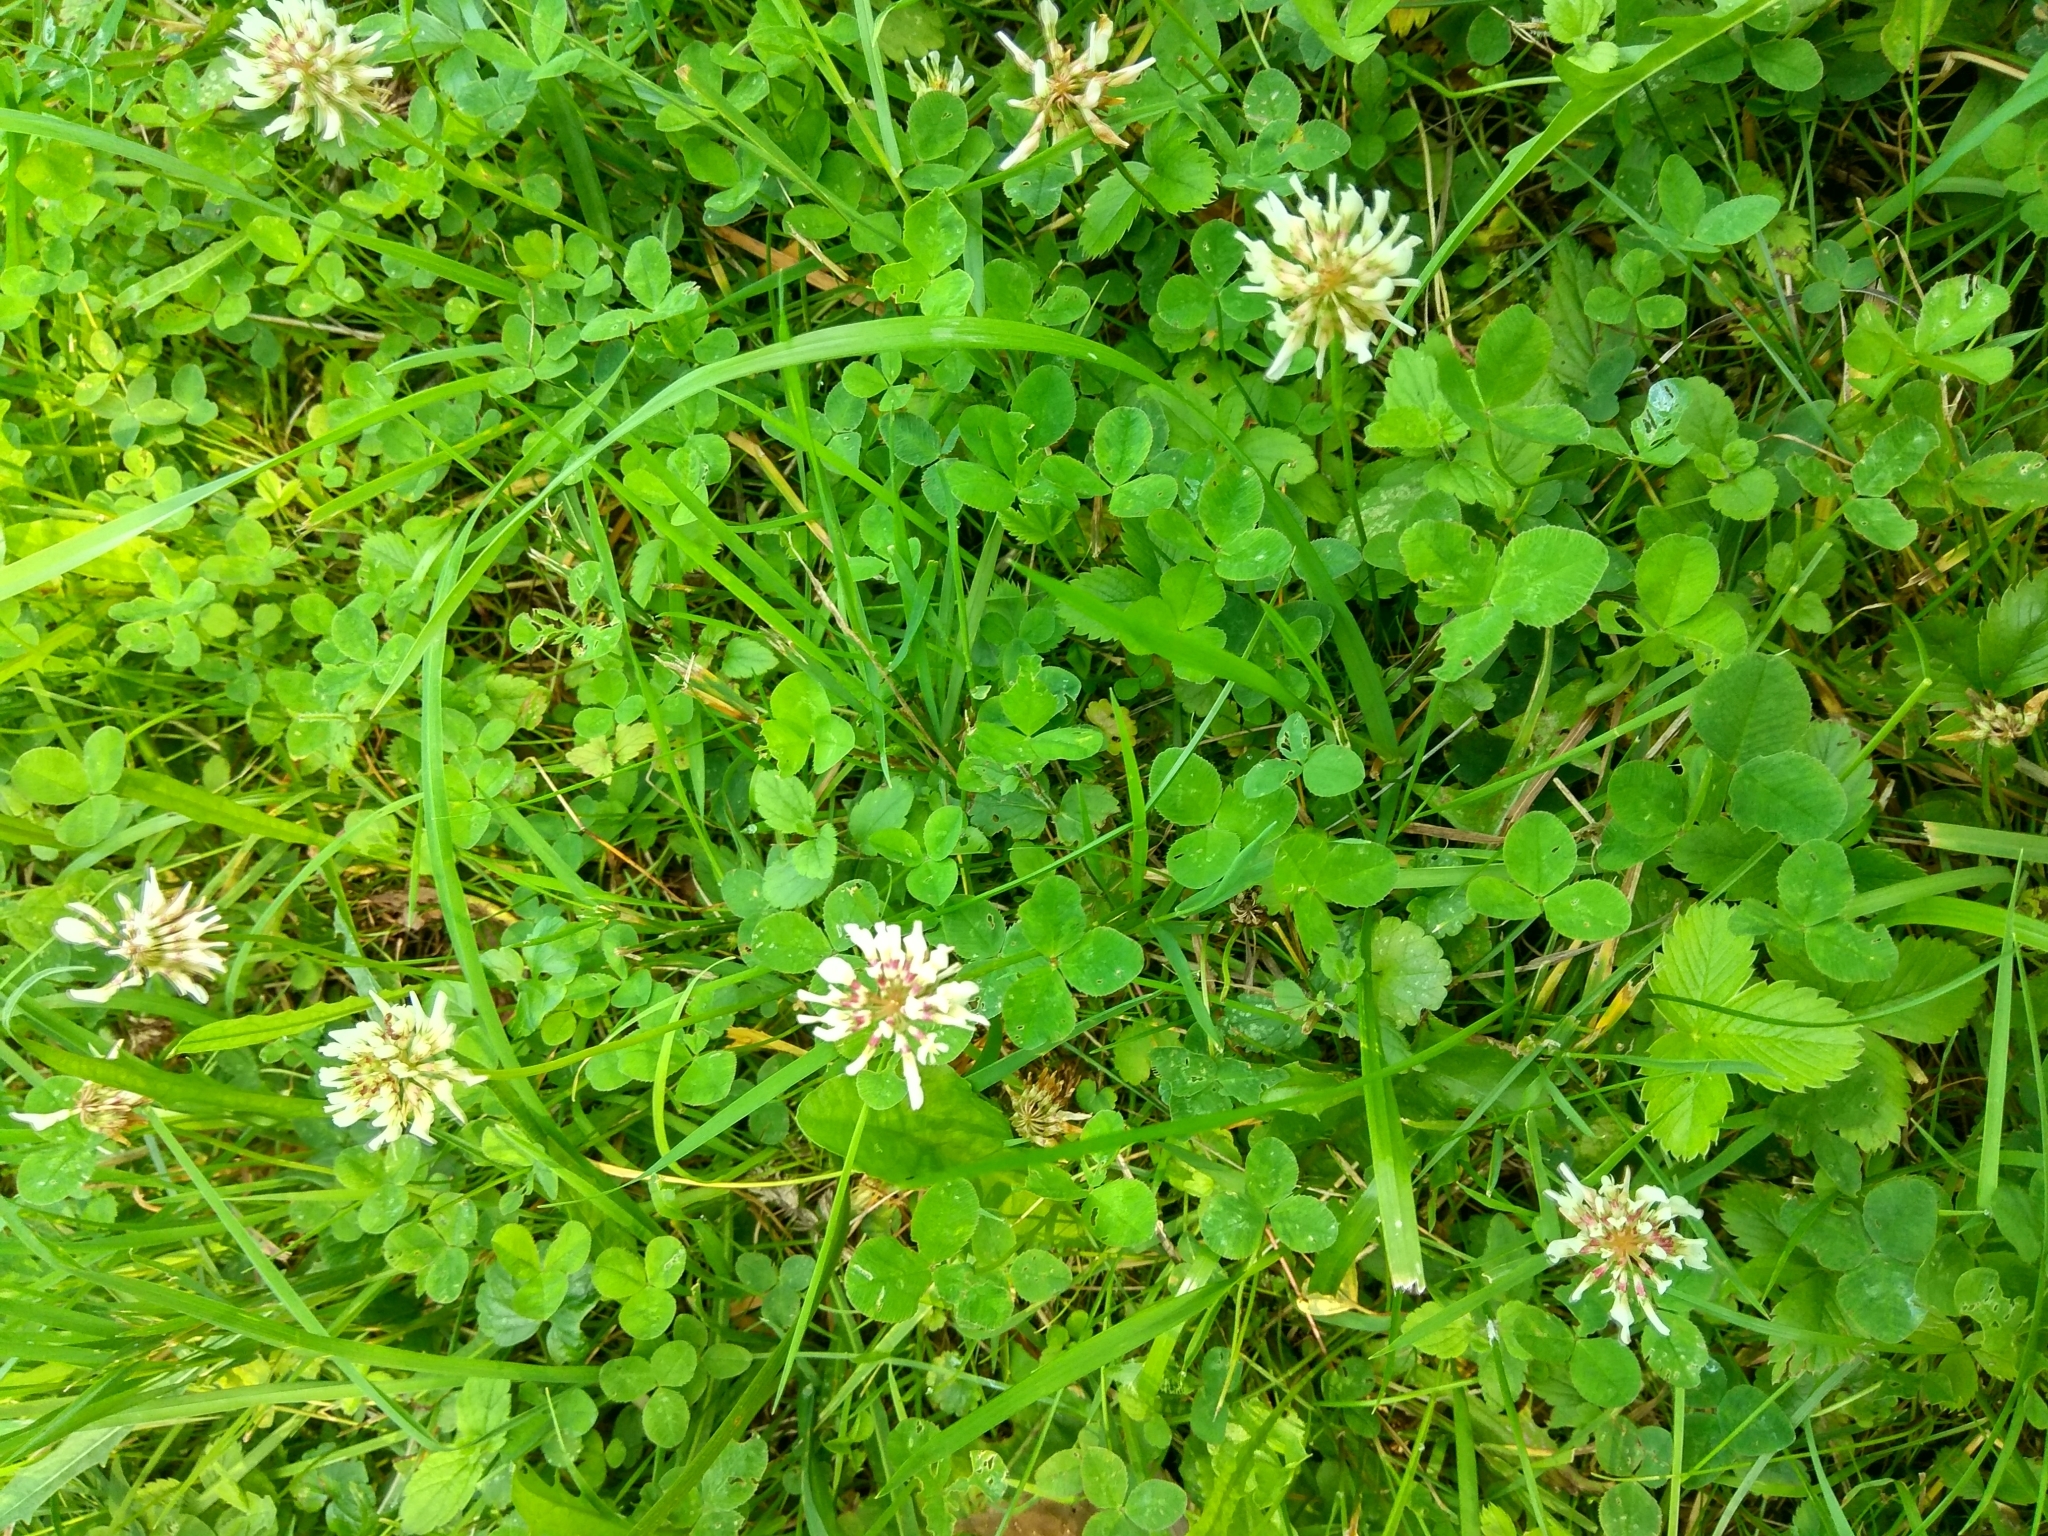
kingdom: Plantae
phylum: Tracheophyta
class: Magnoliopsida
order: Fabales
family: Fabaceae
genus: Trifolium
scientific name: Trifolium repens
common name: White clover
